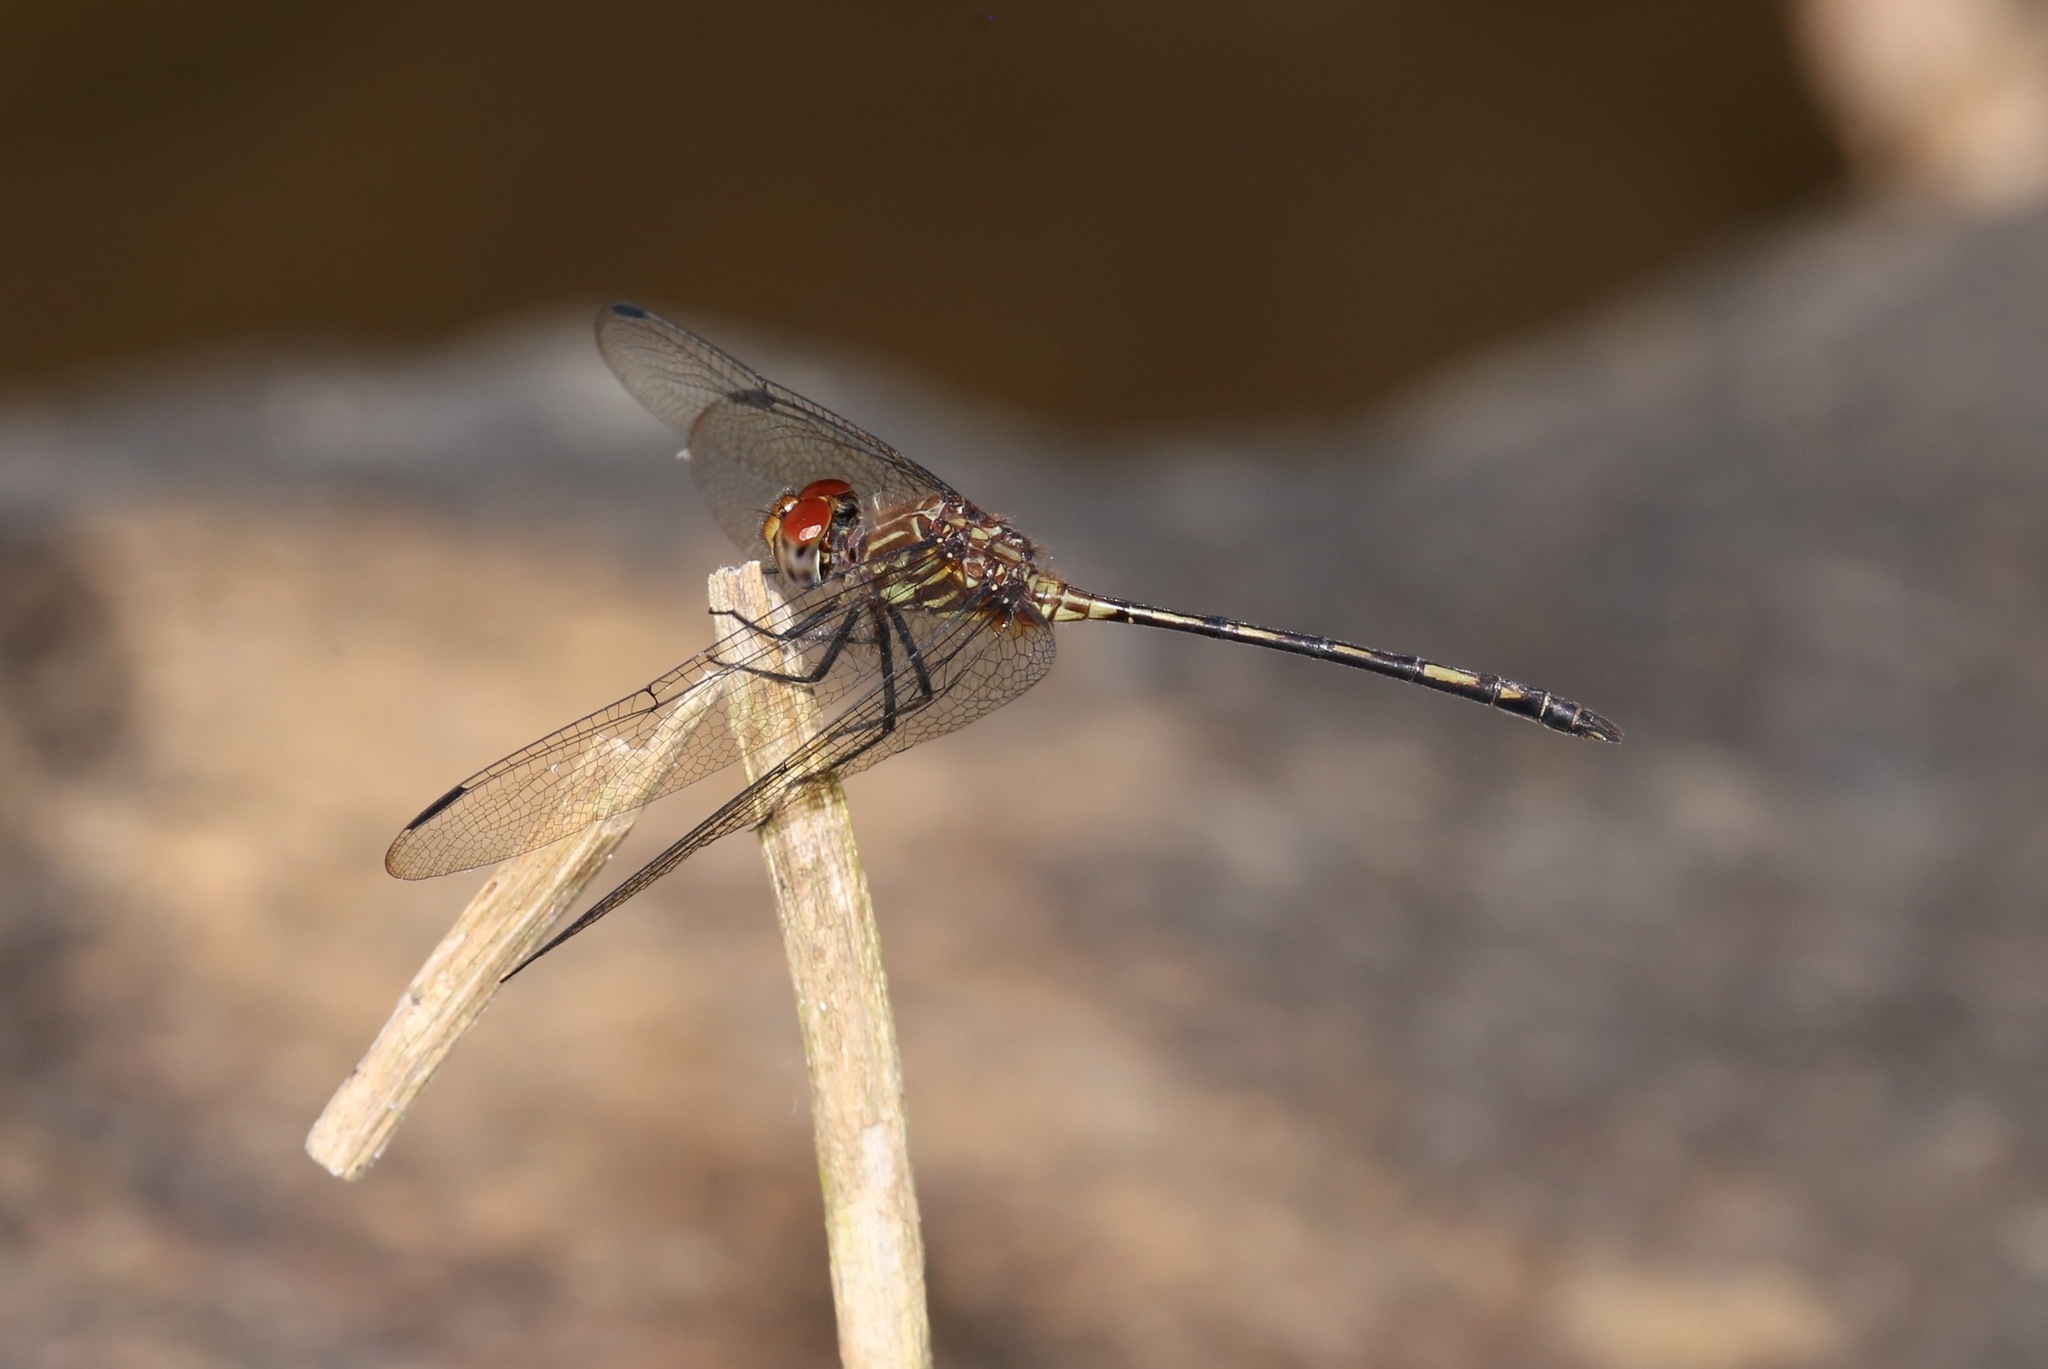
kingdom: Animalia
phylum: Arthropoda
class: Insecta
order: Odonata
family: Libellulidae
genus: Dythemis
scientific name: Dythemis sterilis
